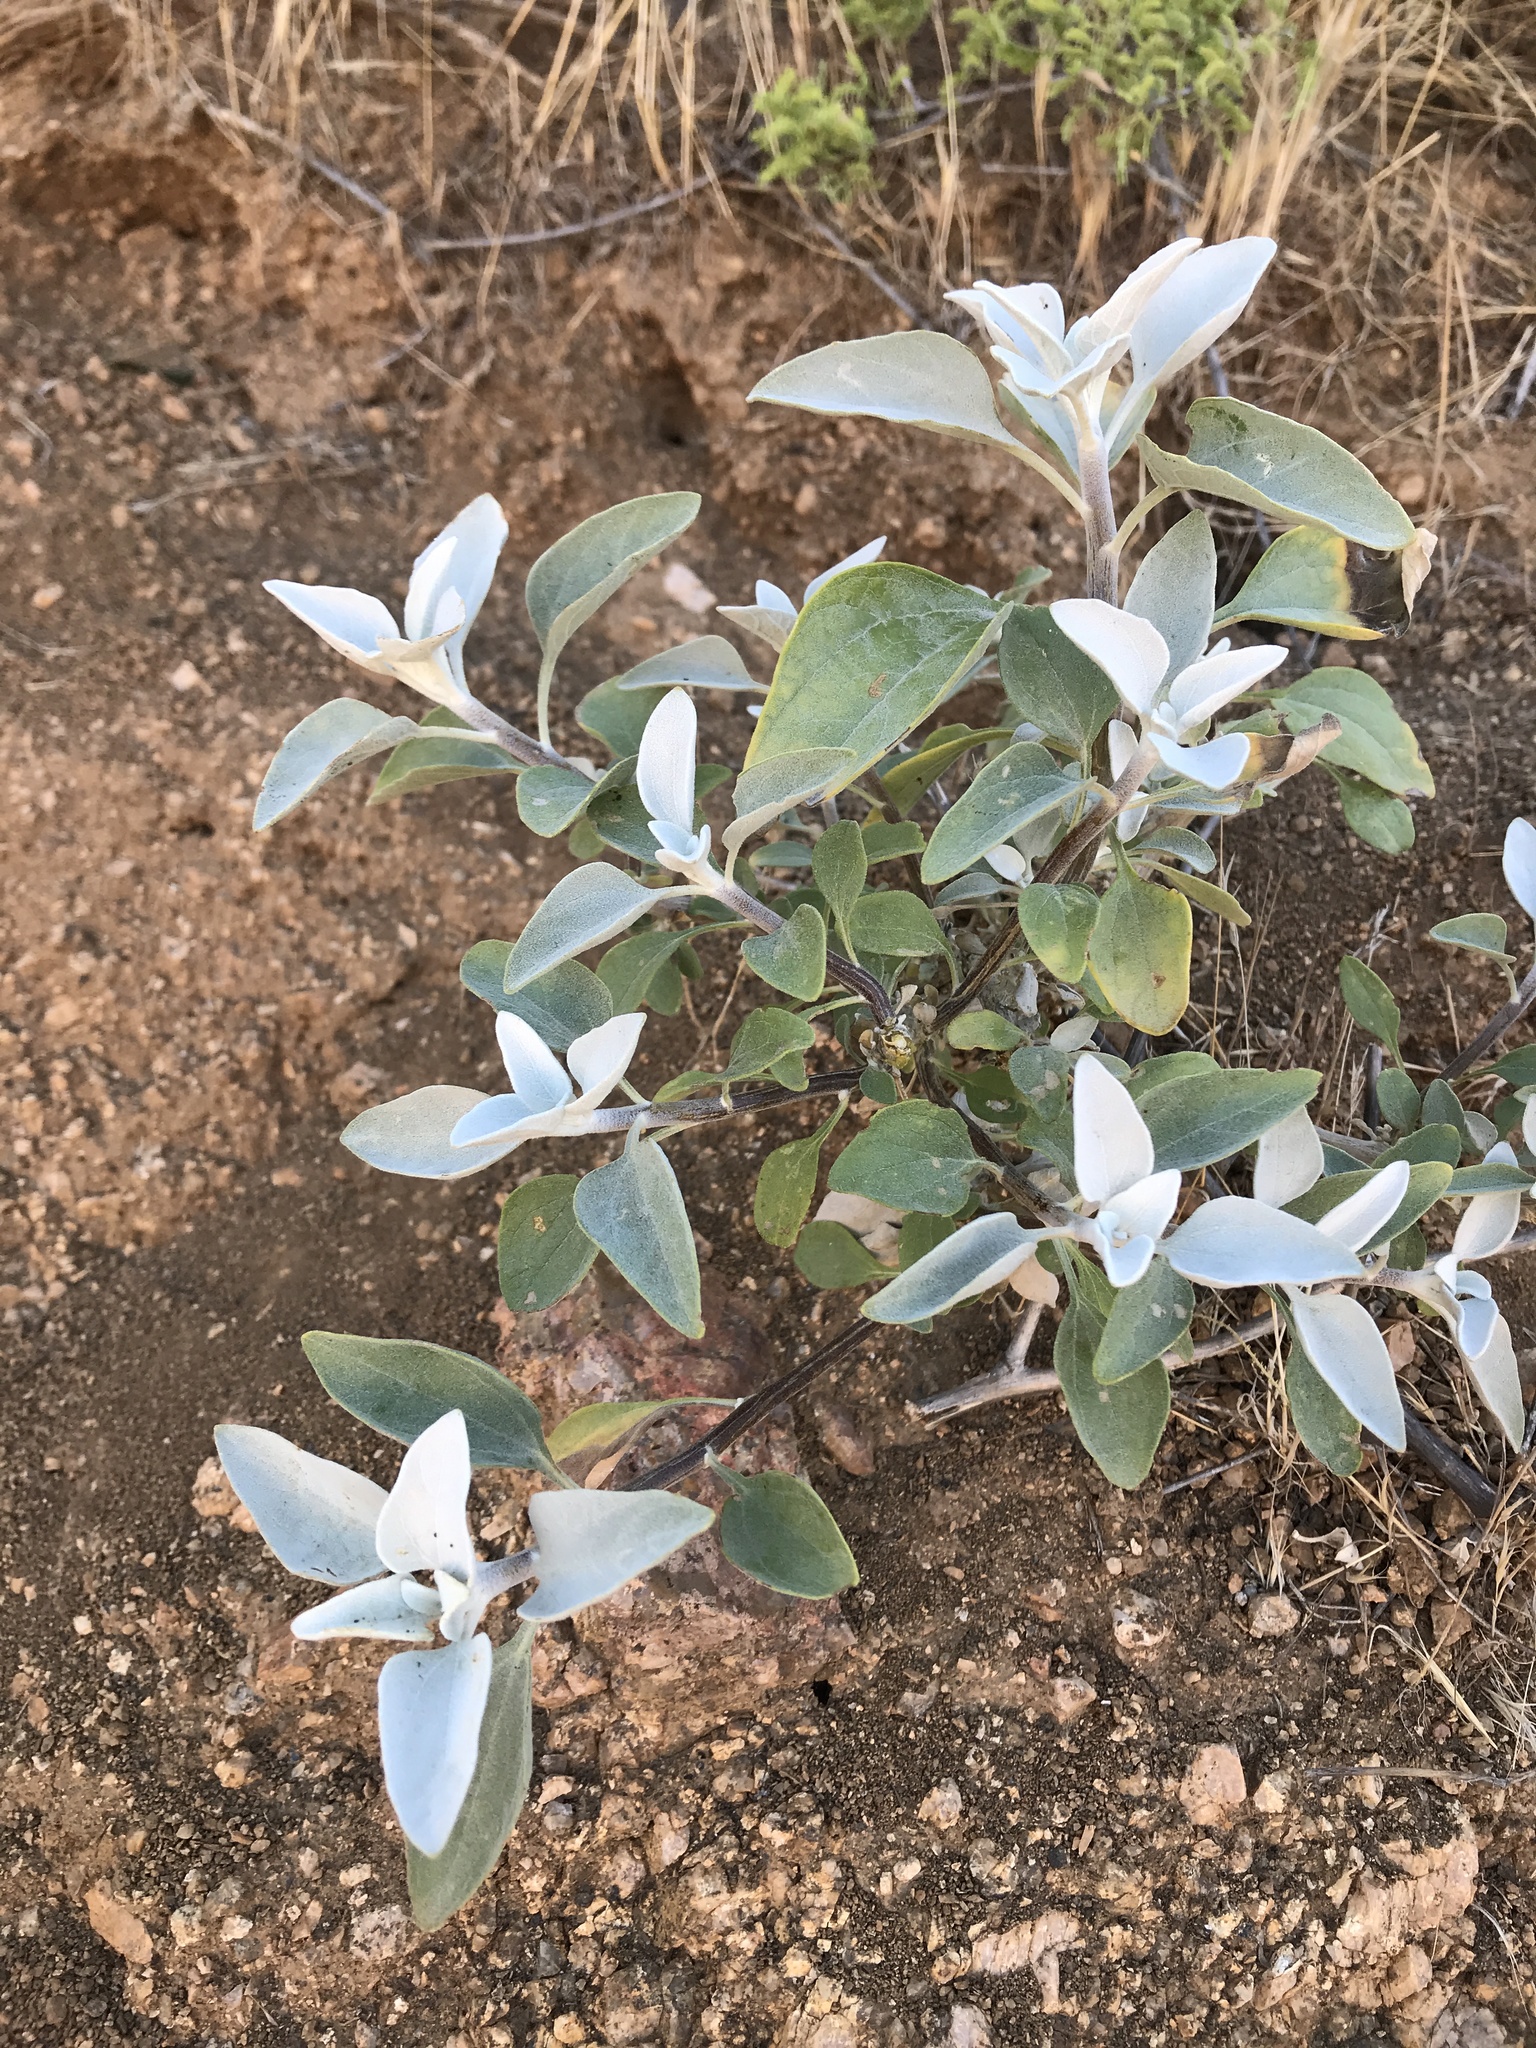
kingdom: Plantae
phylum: Tracheophyta
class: Magnoliopsida
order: Asterales
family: Asteraceae
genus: Encelia
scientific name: Encelia farinosa
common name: Brittlebush
